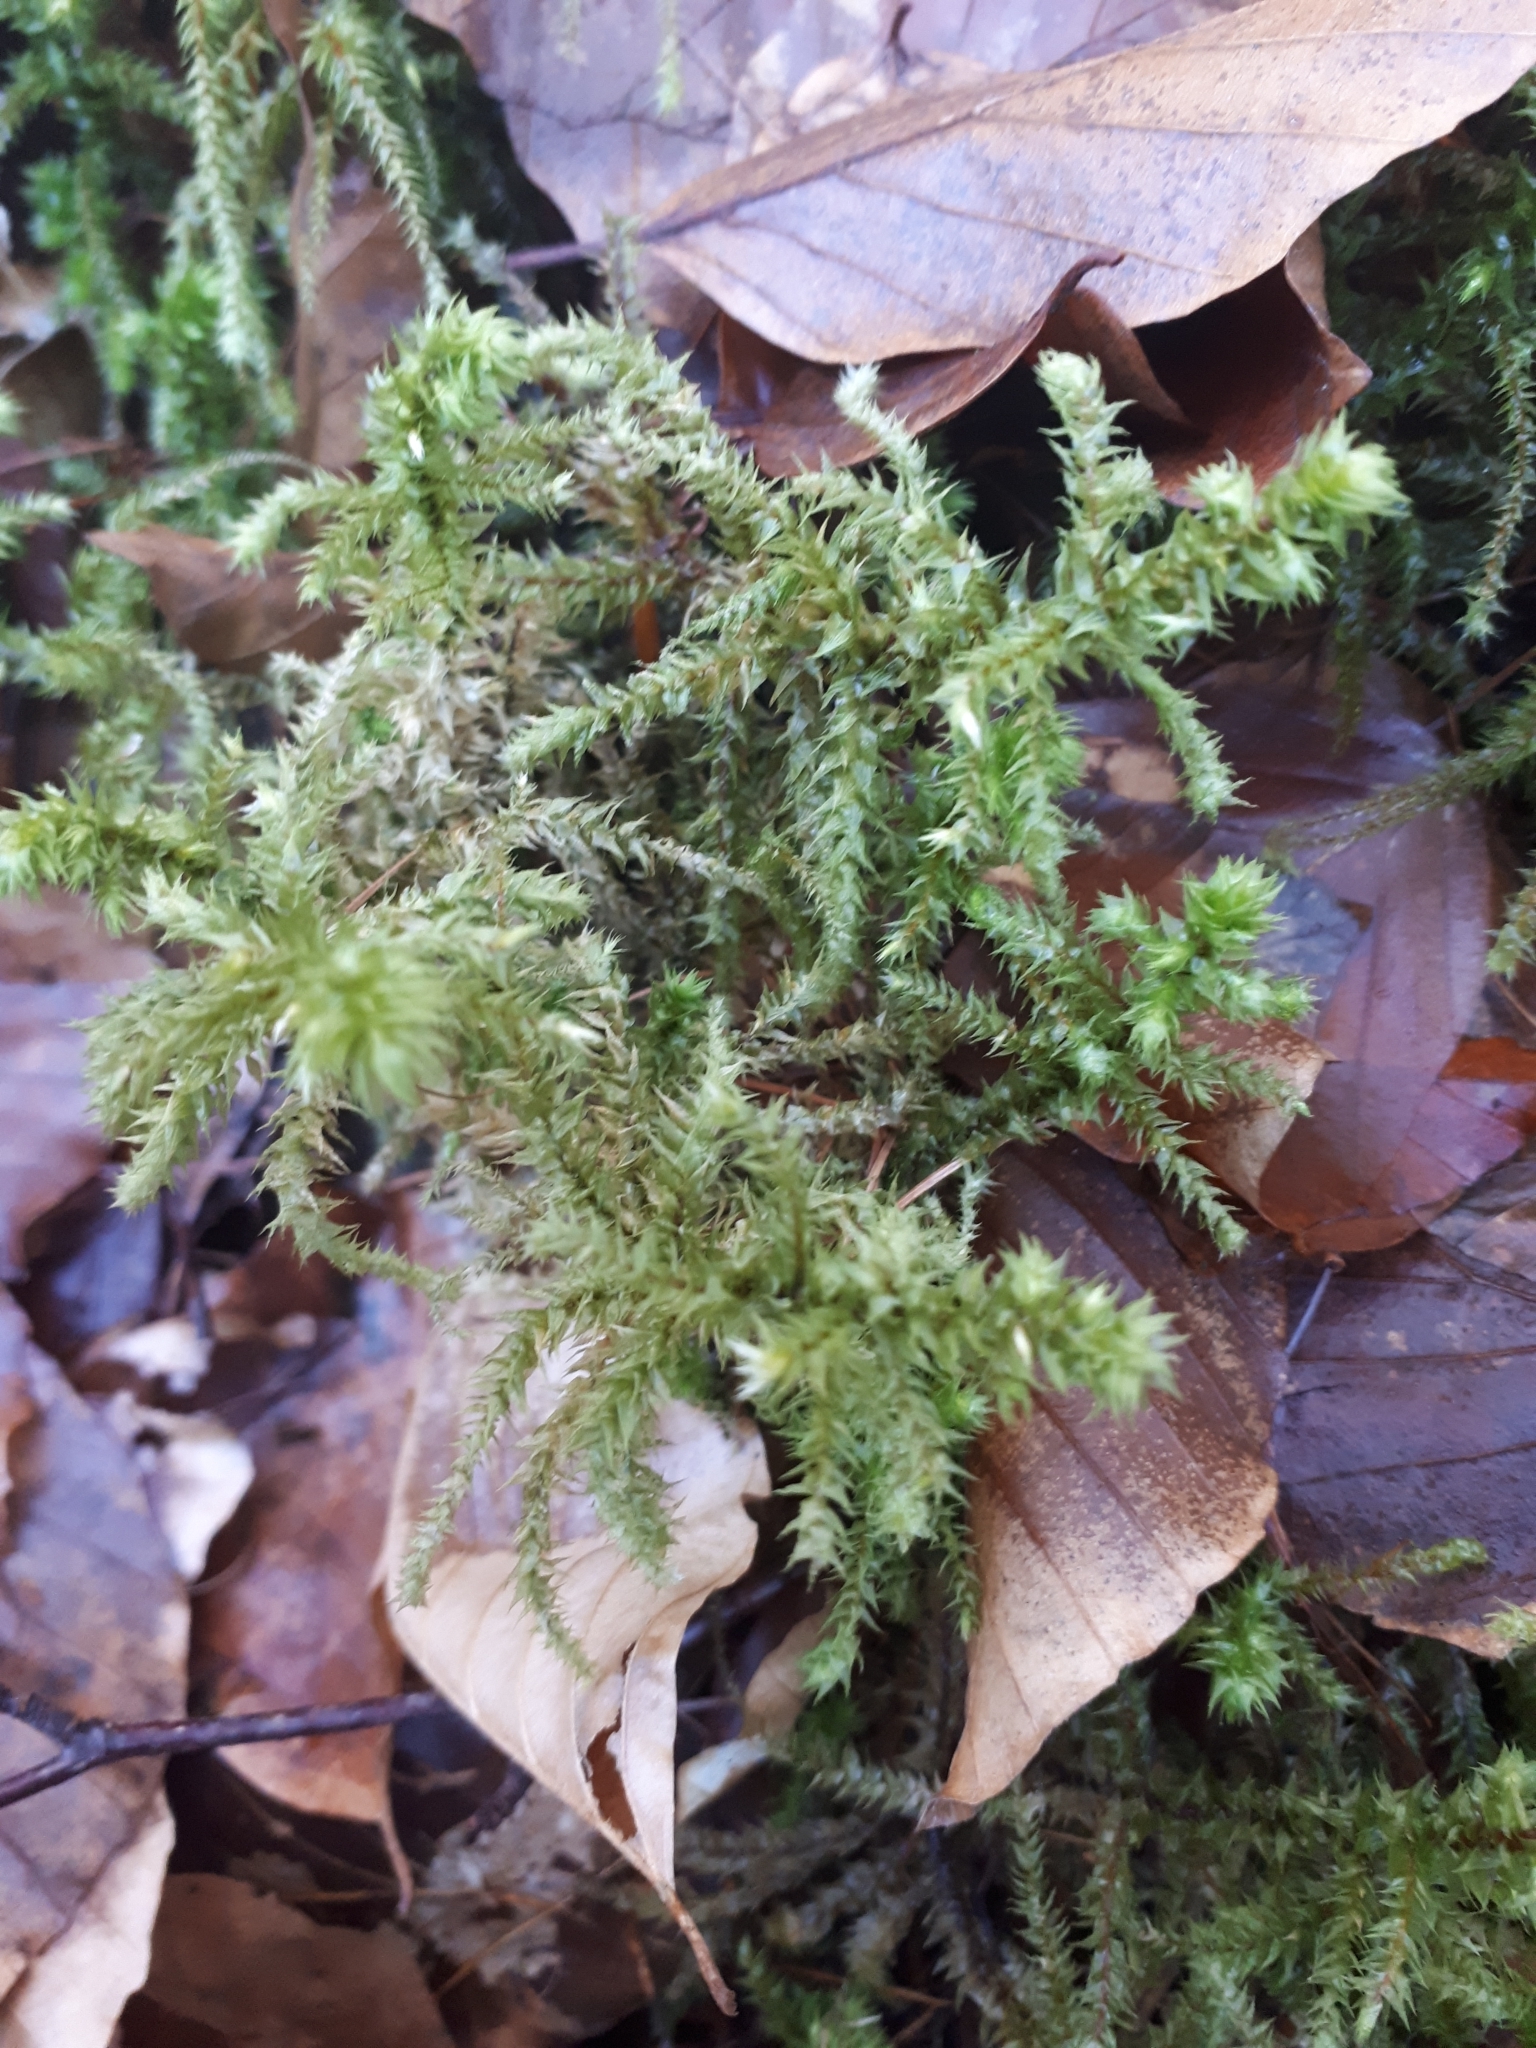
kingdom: Plantae
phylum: Bryophyta
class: Bryopsida
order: Hypnales
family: Hylocomiaceae
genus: Hylocomiadelphus
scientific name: Hylocomiadelphus triquetrus
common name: Rough goose neck moss
